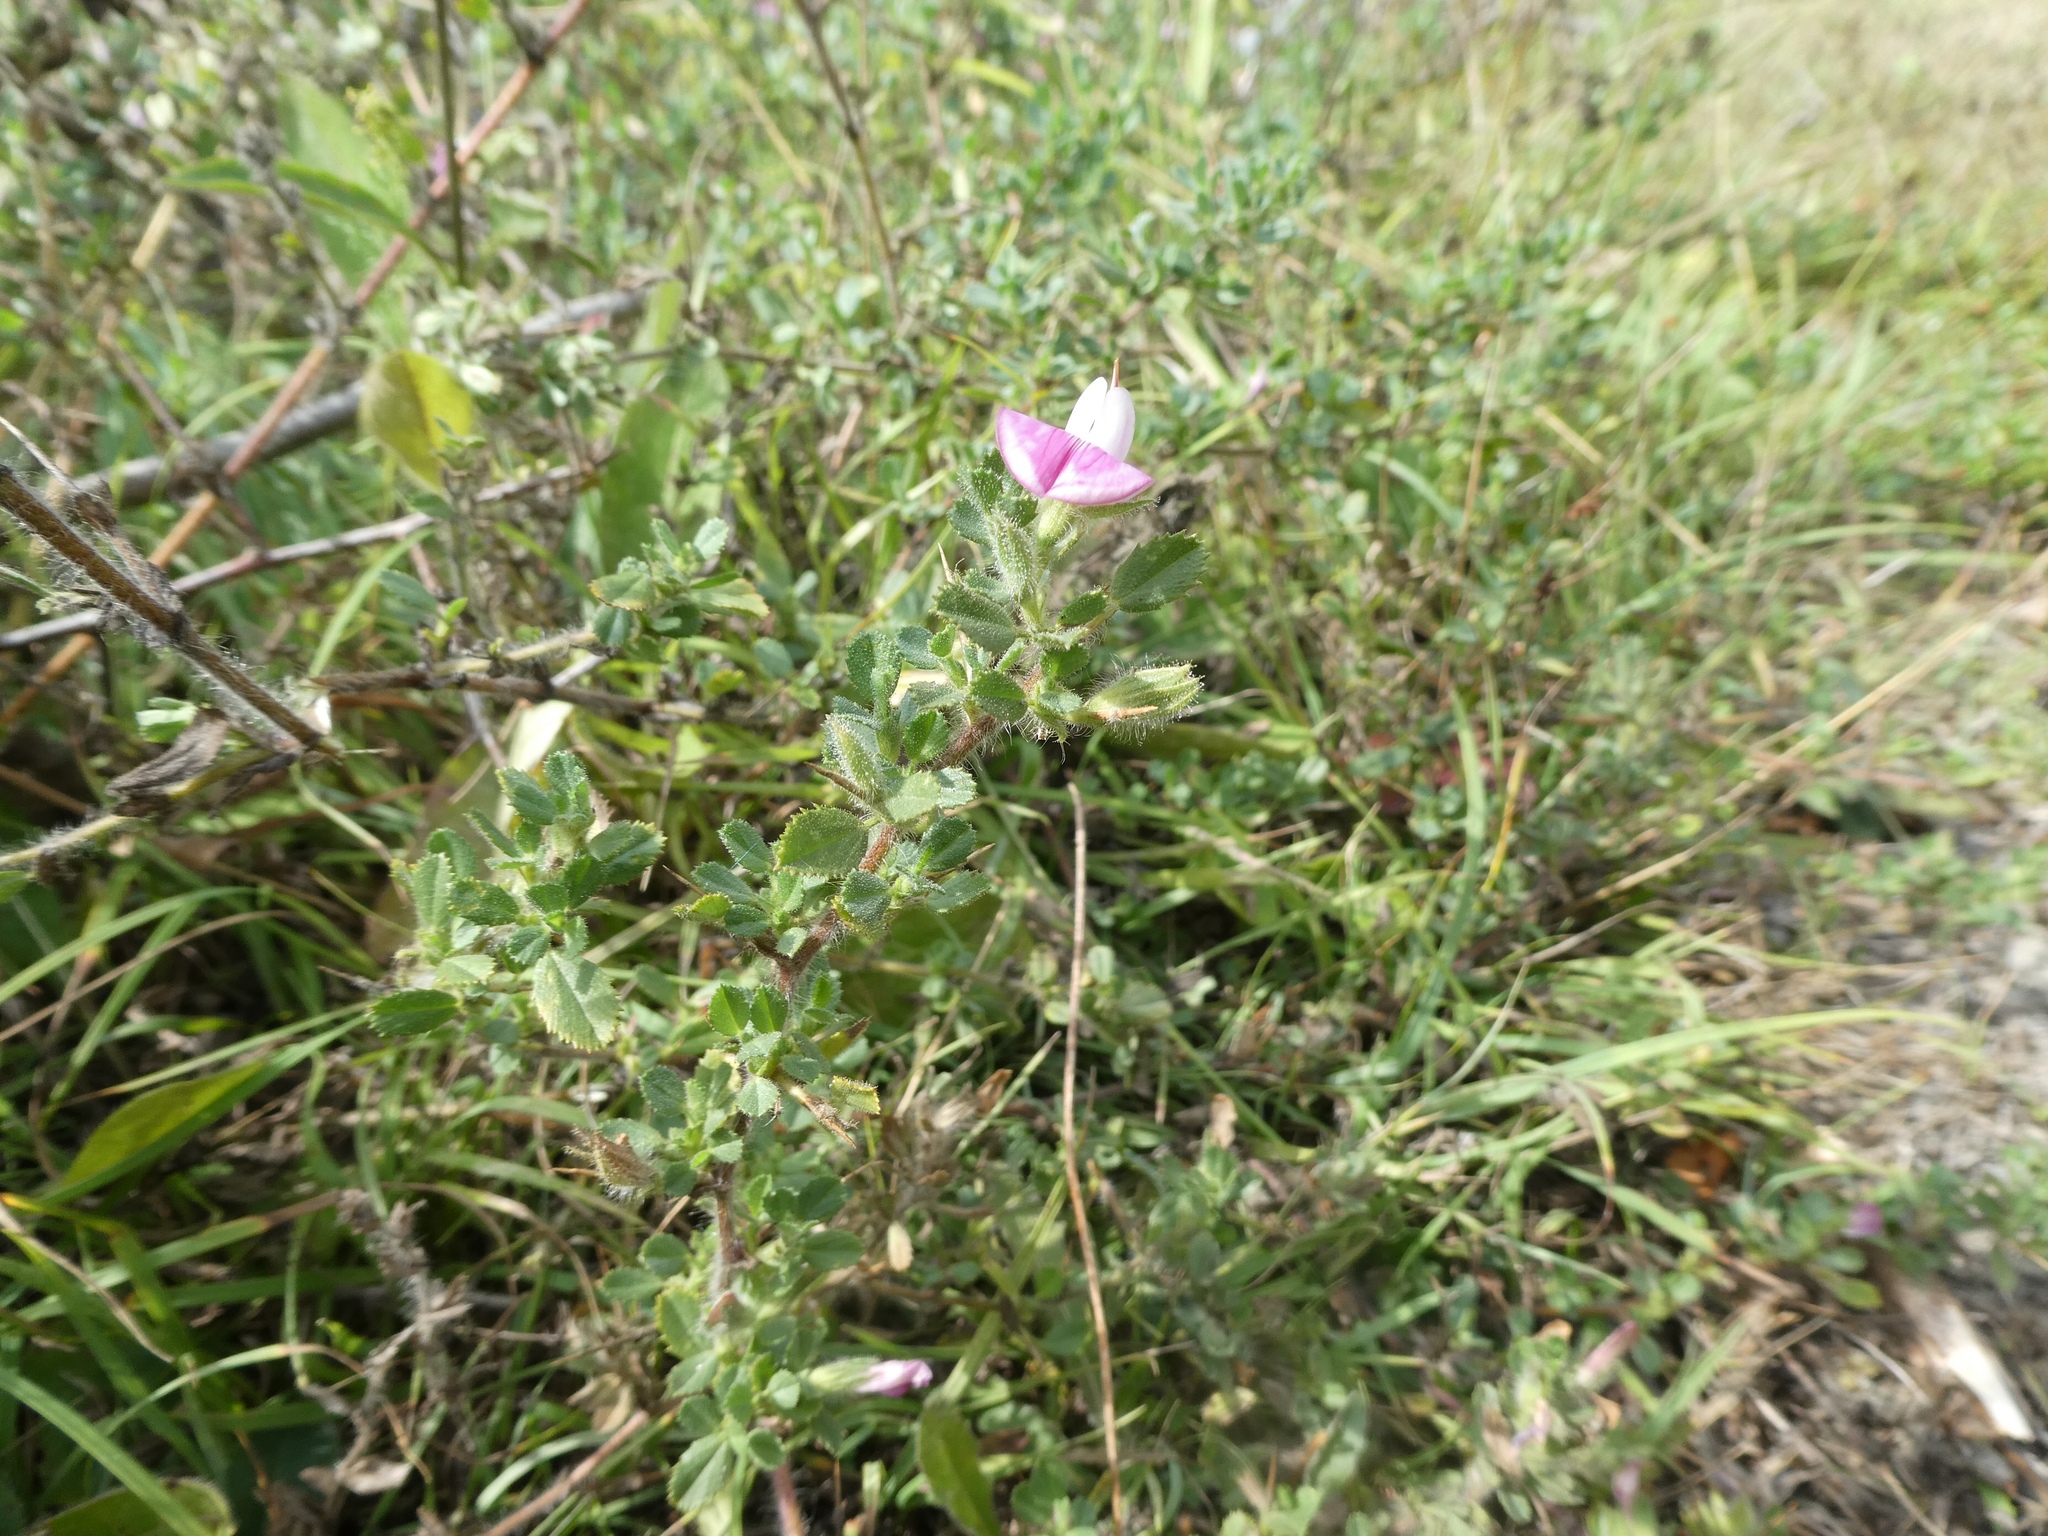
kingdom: Plantae
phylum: Tracheophyta
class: Magnoliopsida
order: Fabales
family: Fabaceae
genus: Ononis
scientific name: Ononis spinosa
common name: Spiny restharrow
